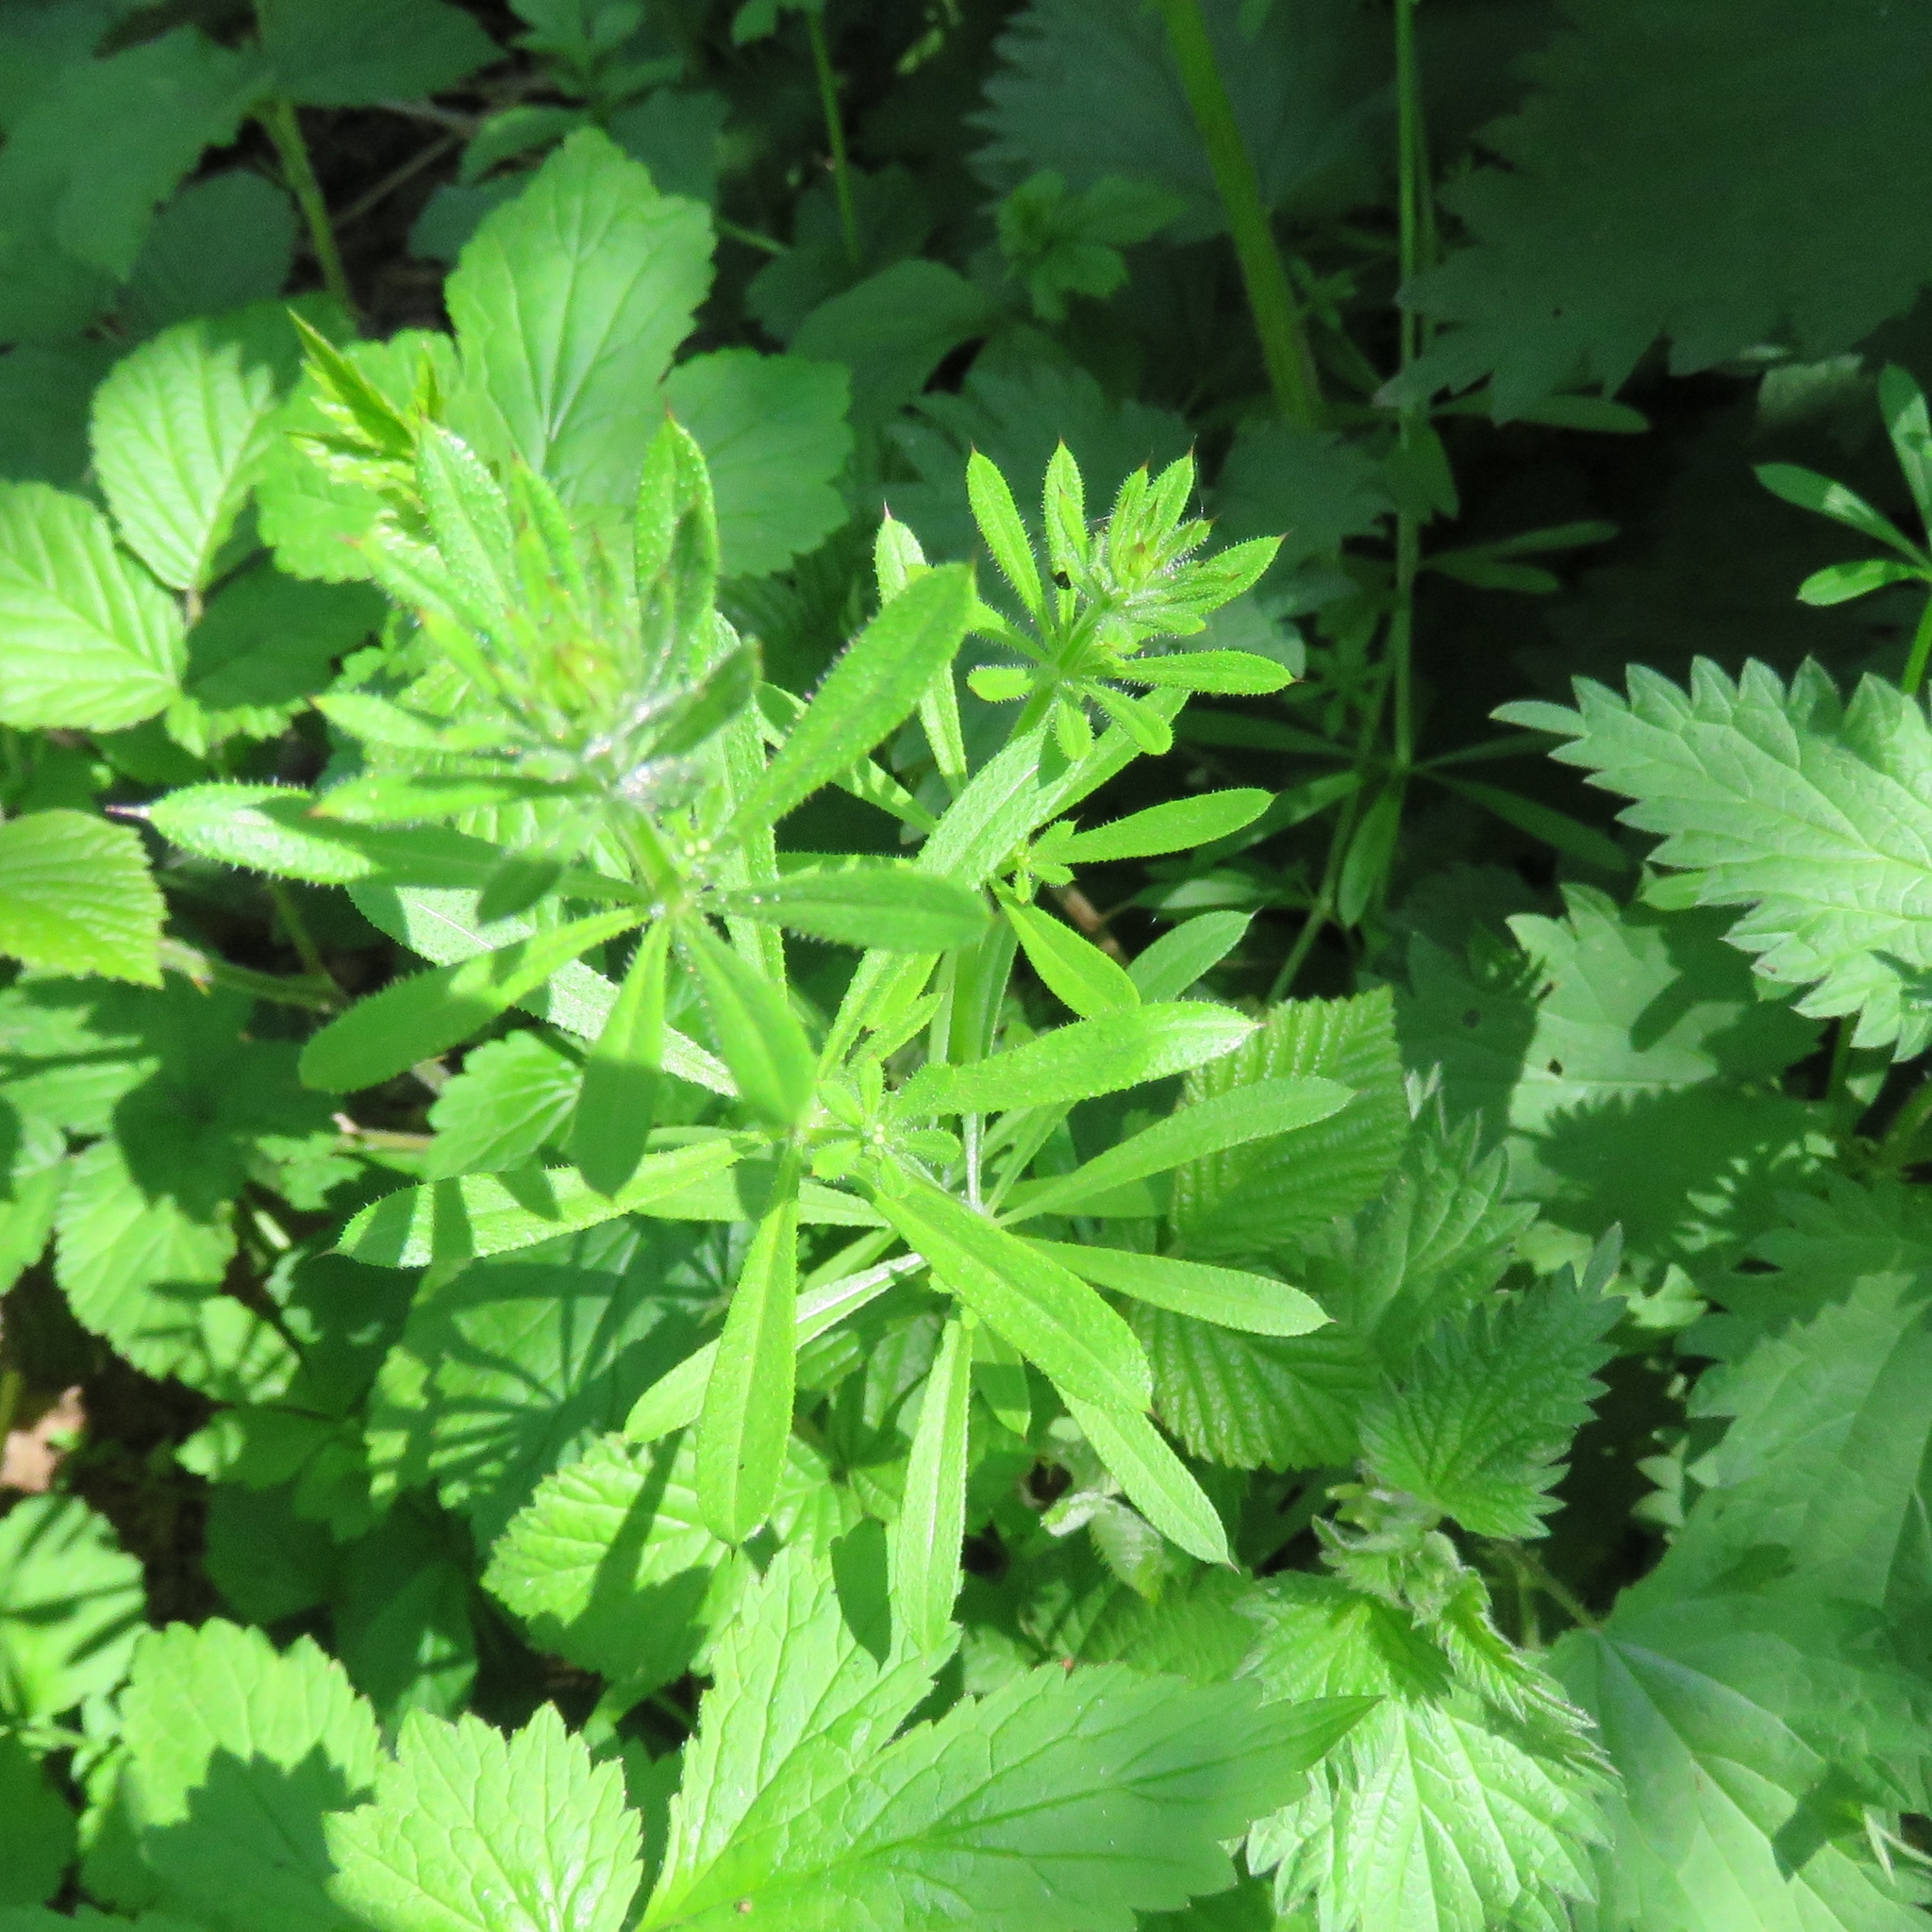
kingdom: Plantae
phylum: Tracheophyta
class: Magnoliopsida
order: Gentianales
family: Rubiaceae
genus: Galium
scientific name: Galium aparine
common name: Cleavers
